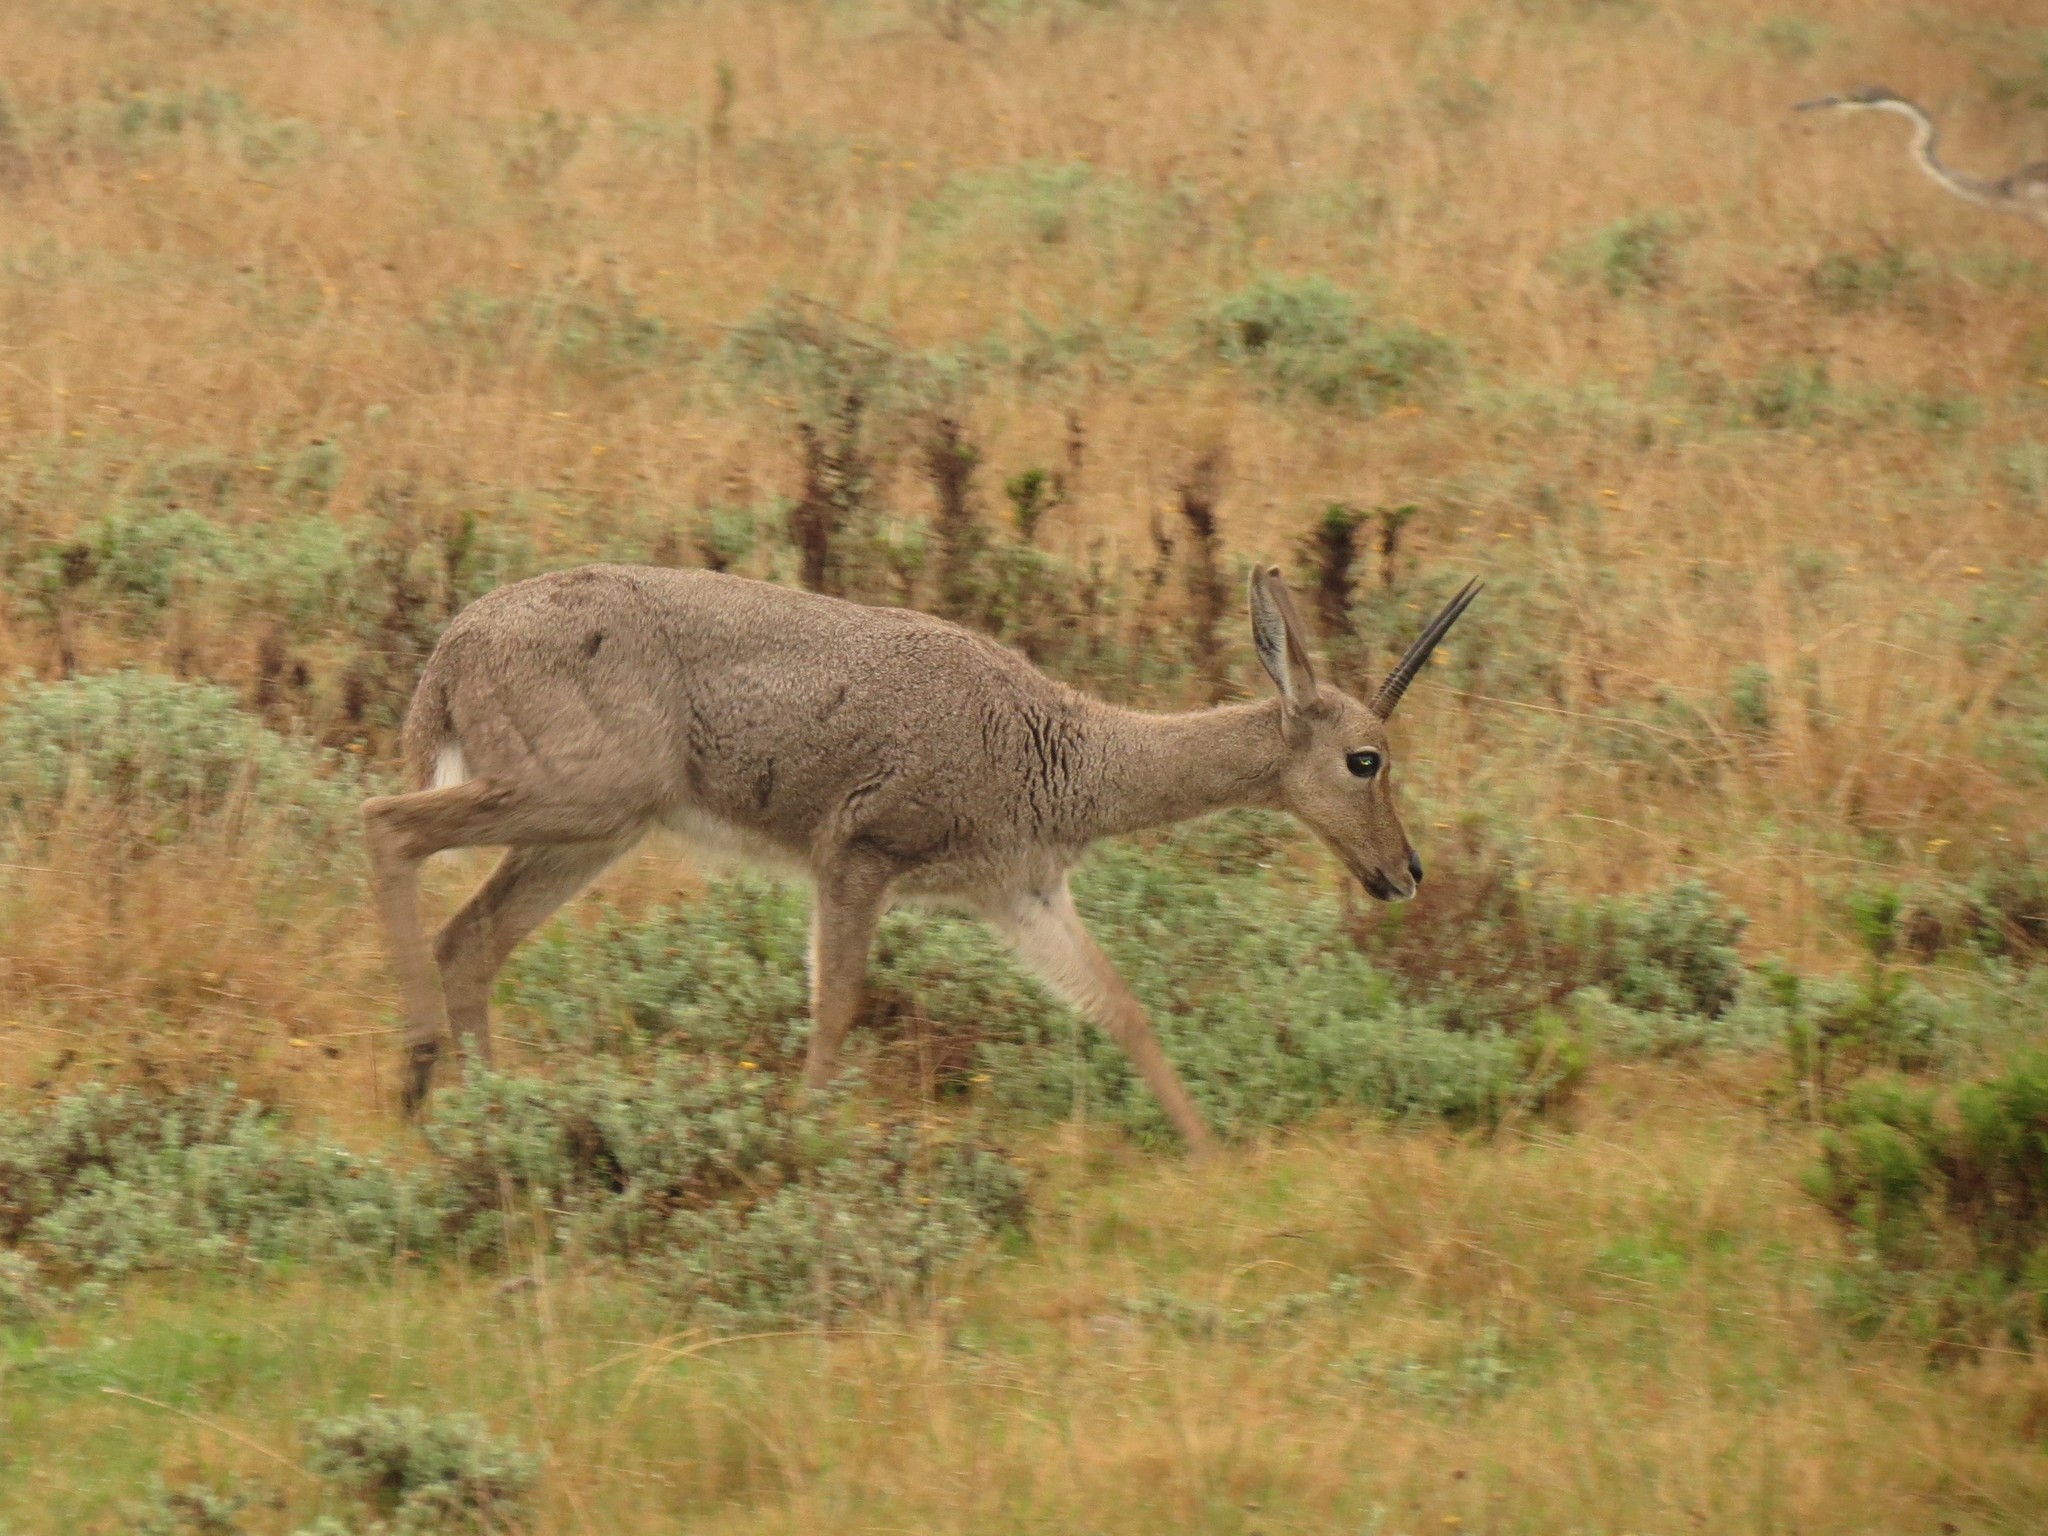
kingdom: Animalia
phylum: Chordata
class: Mammalia
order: Artiodactyla
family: Bovidae
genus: Pelea
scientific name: Pelea capreolus
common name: Common rhebok
